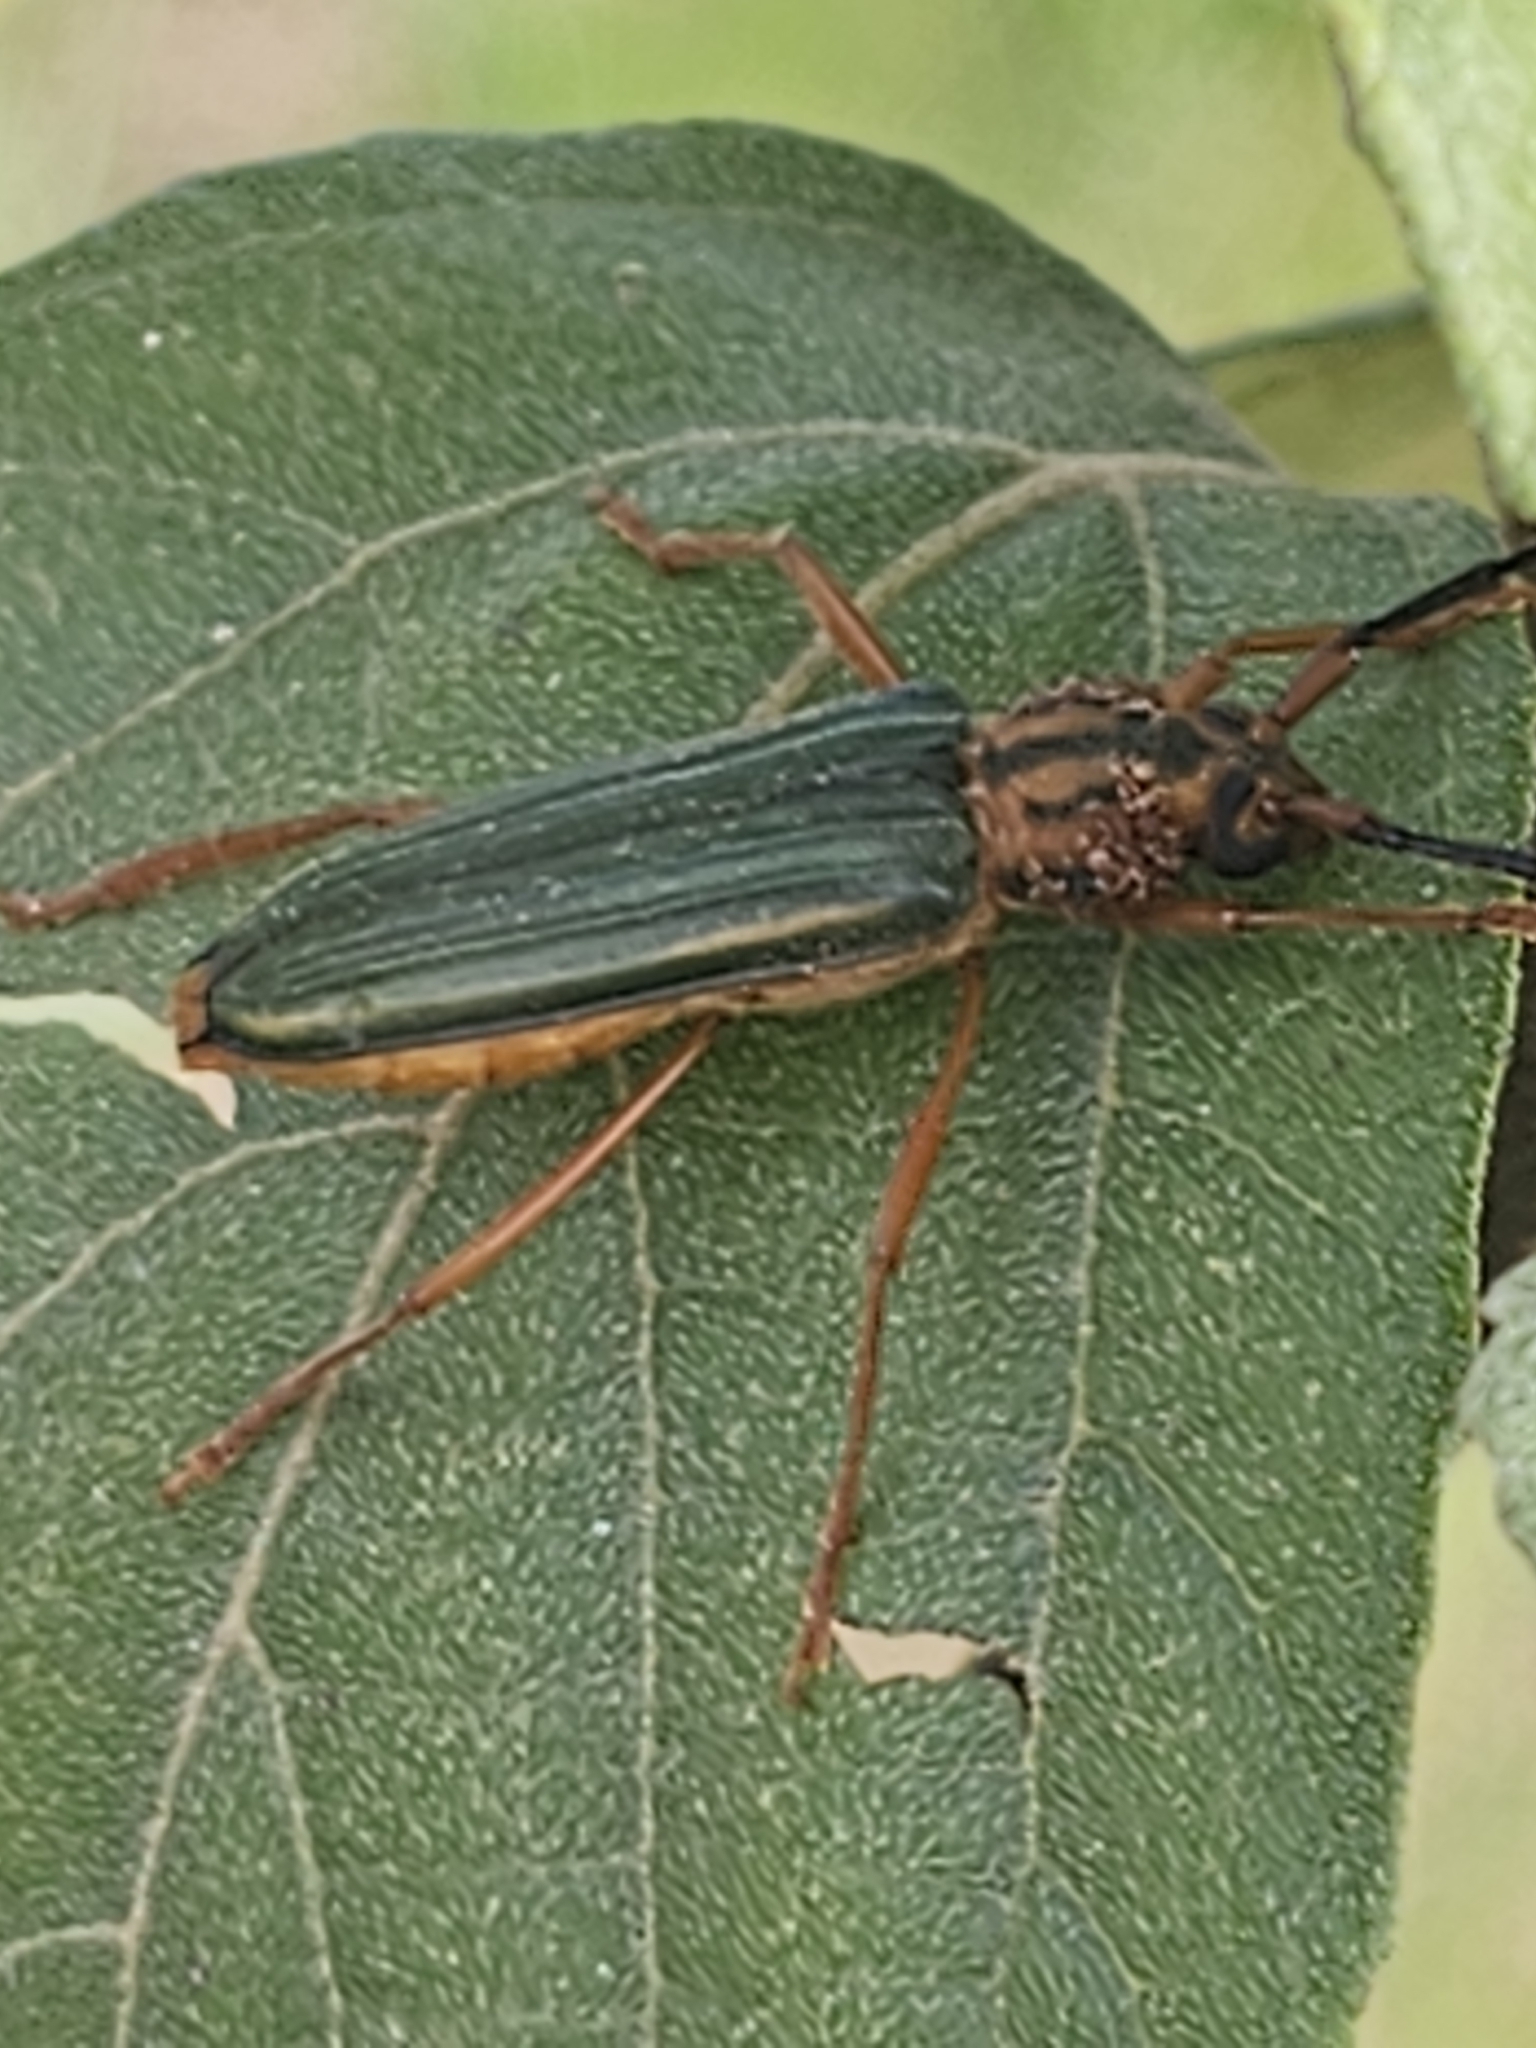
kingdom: Animalia
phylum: Arthropoda
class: Insecta
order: Coleoptera
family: Cerambycidae
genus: Chlorida
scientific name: Chlorida festiva
